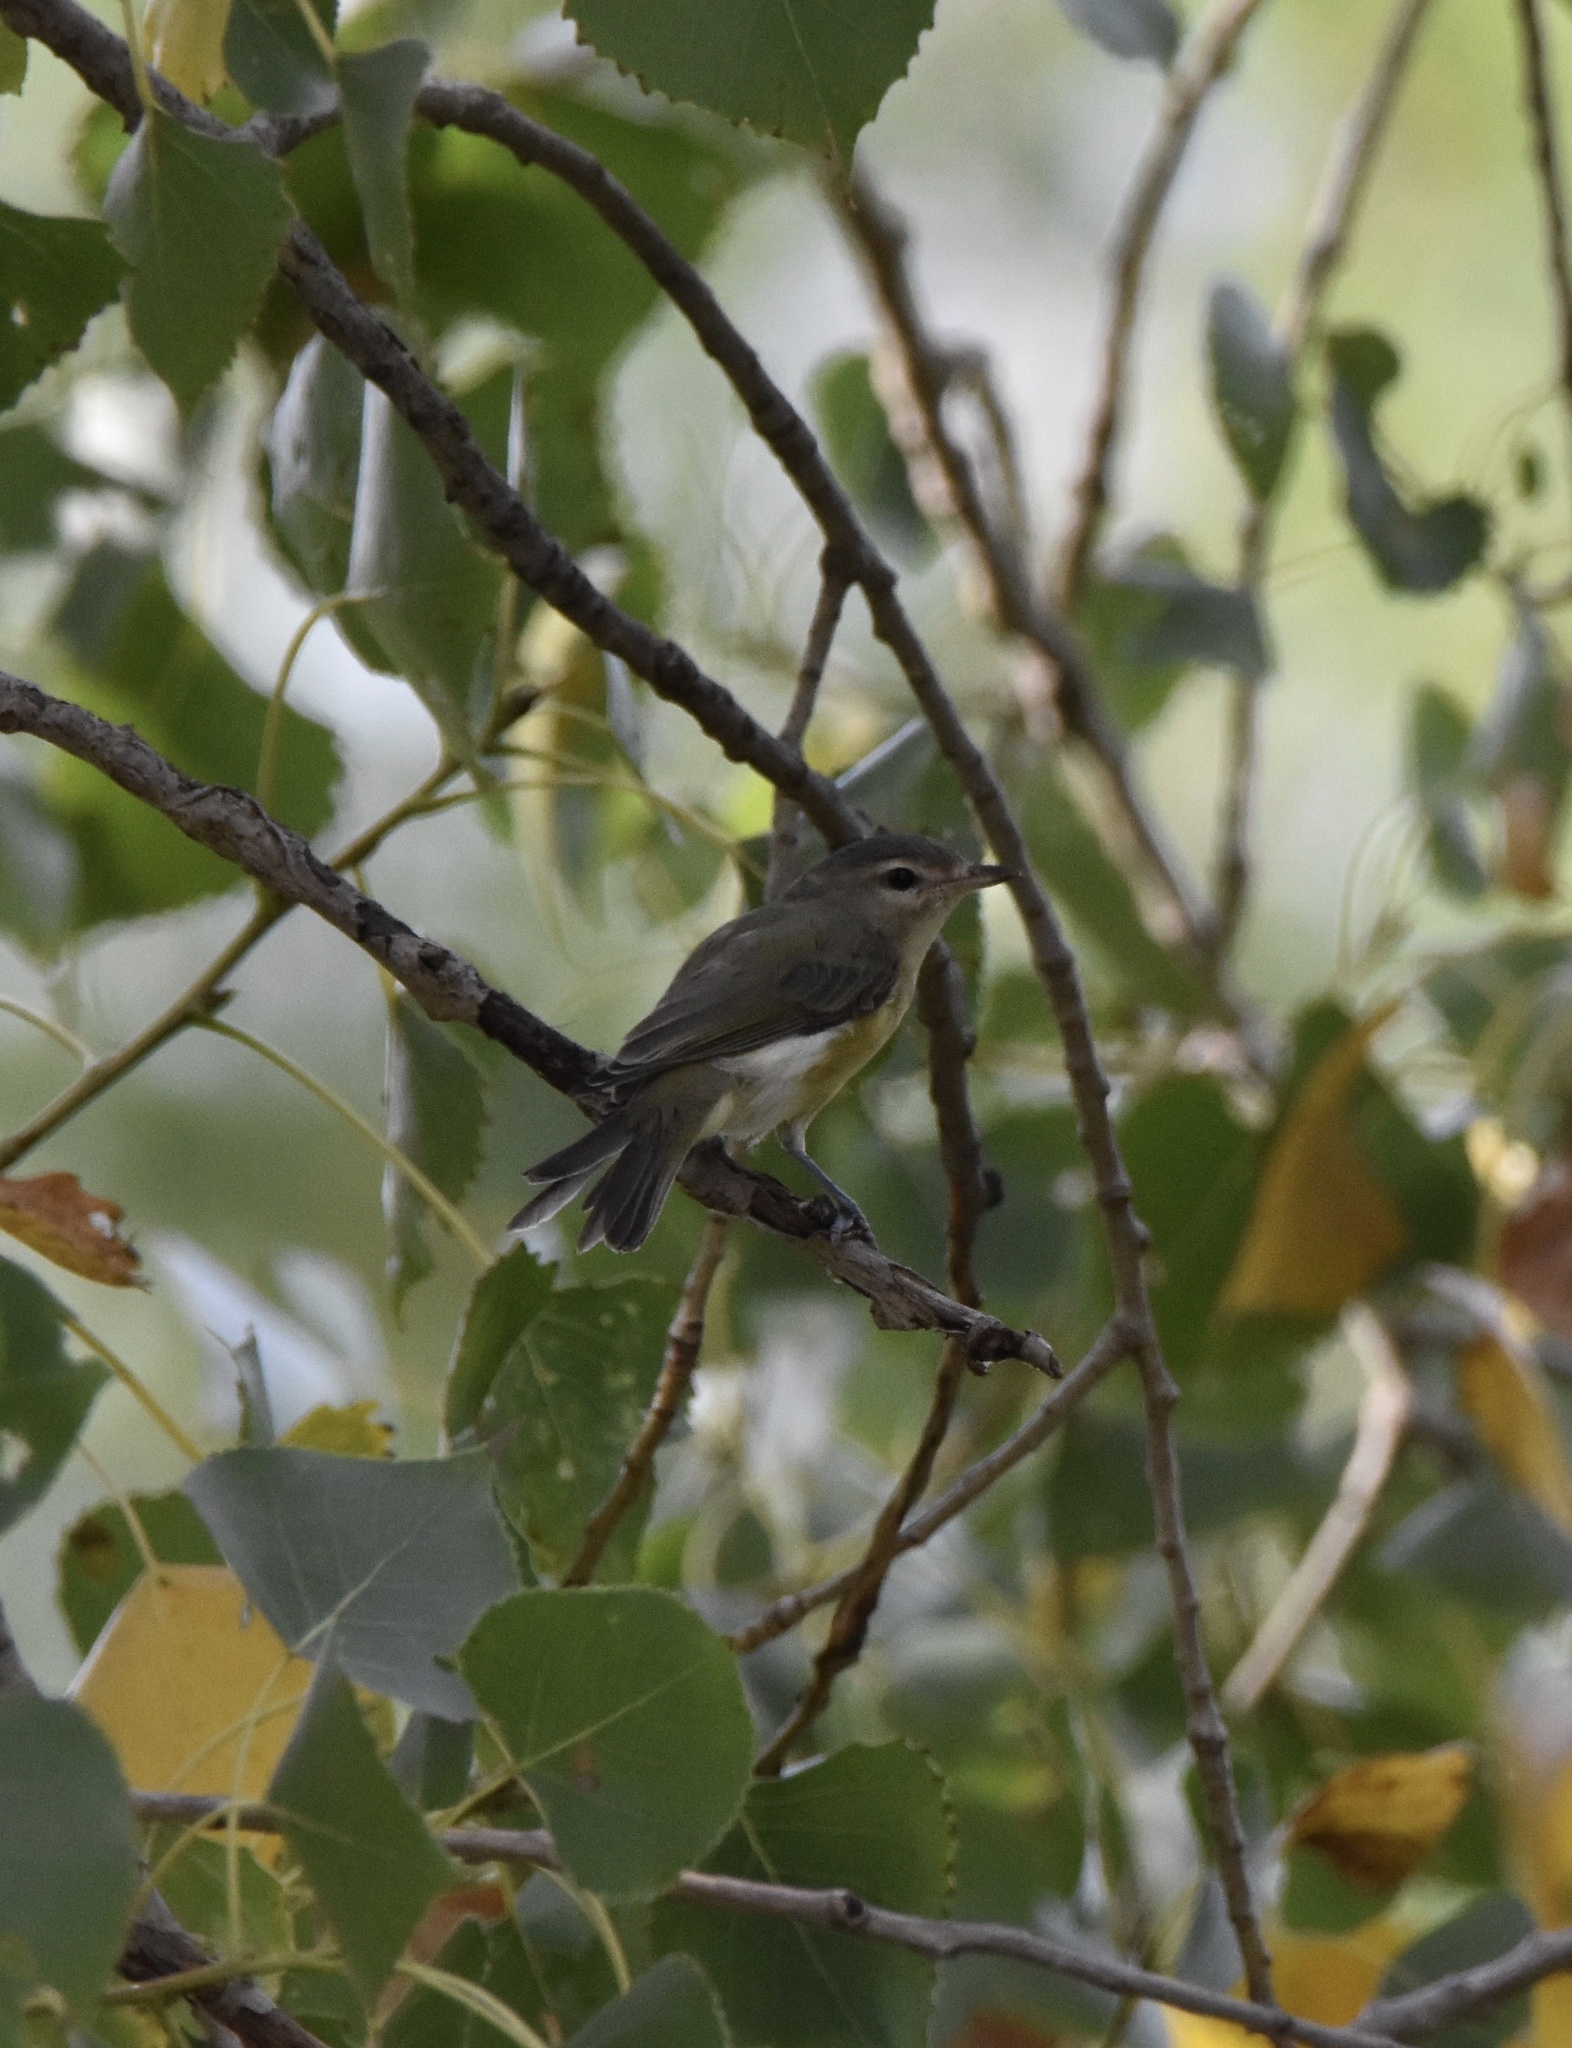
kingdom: Animalia
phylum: Chordata
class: Aves
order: Passeriformes
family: Vireonidae
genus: Vireo
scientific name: Vireo gilvus
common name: Warbling vireo
